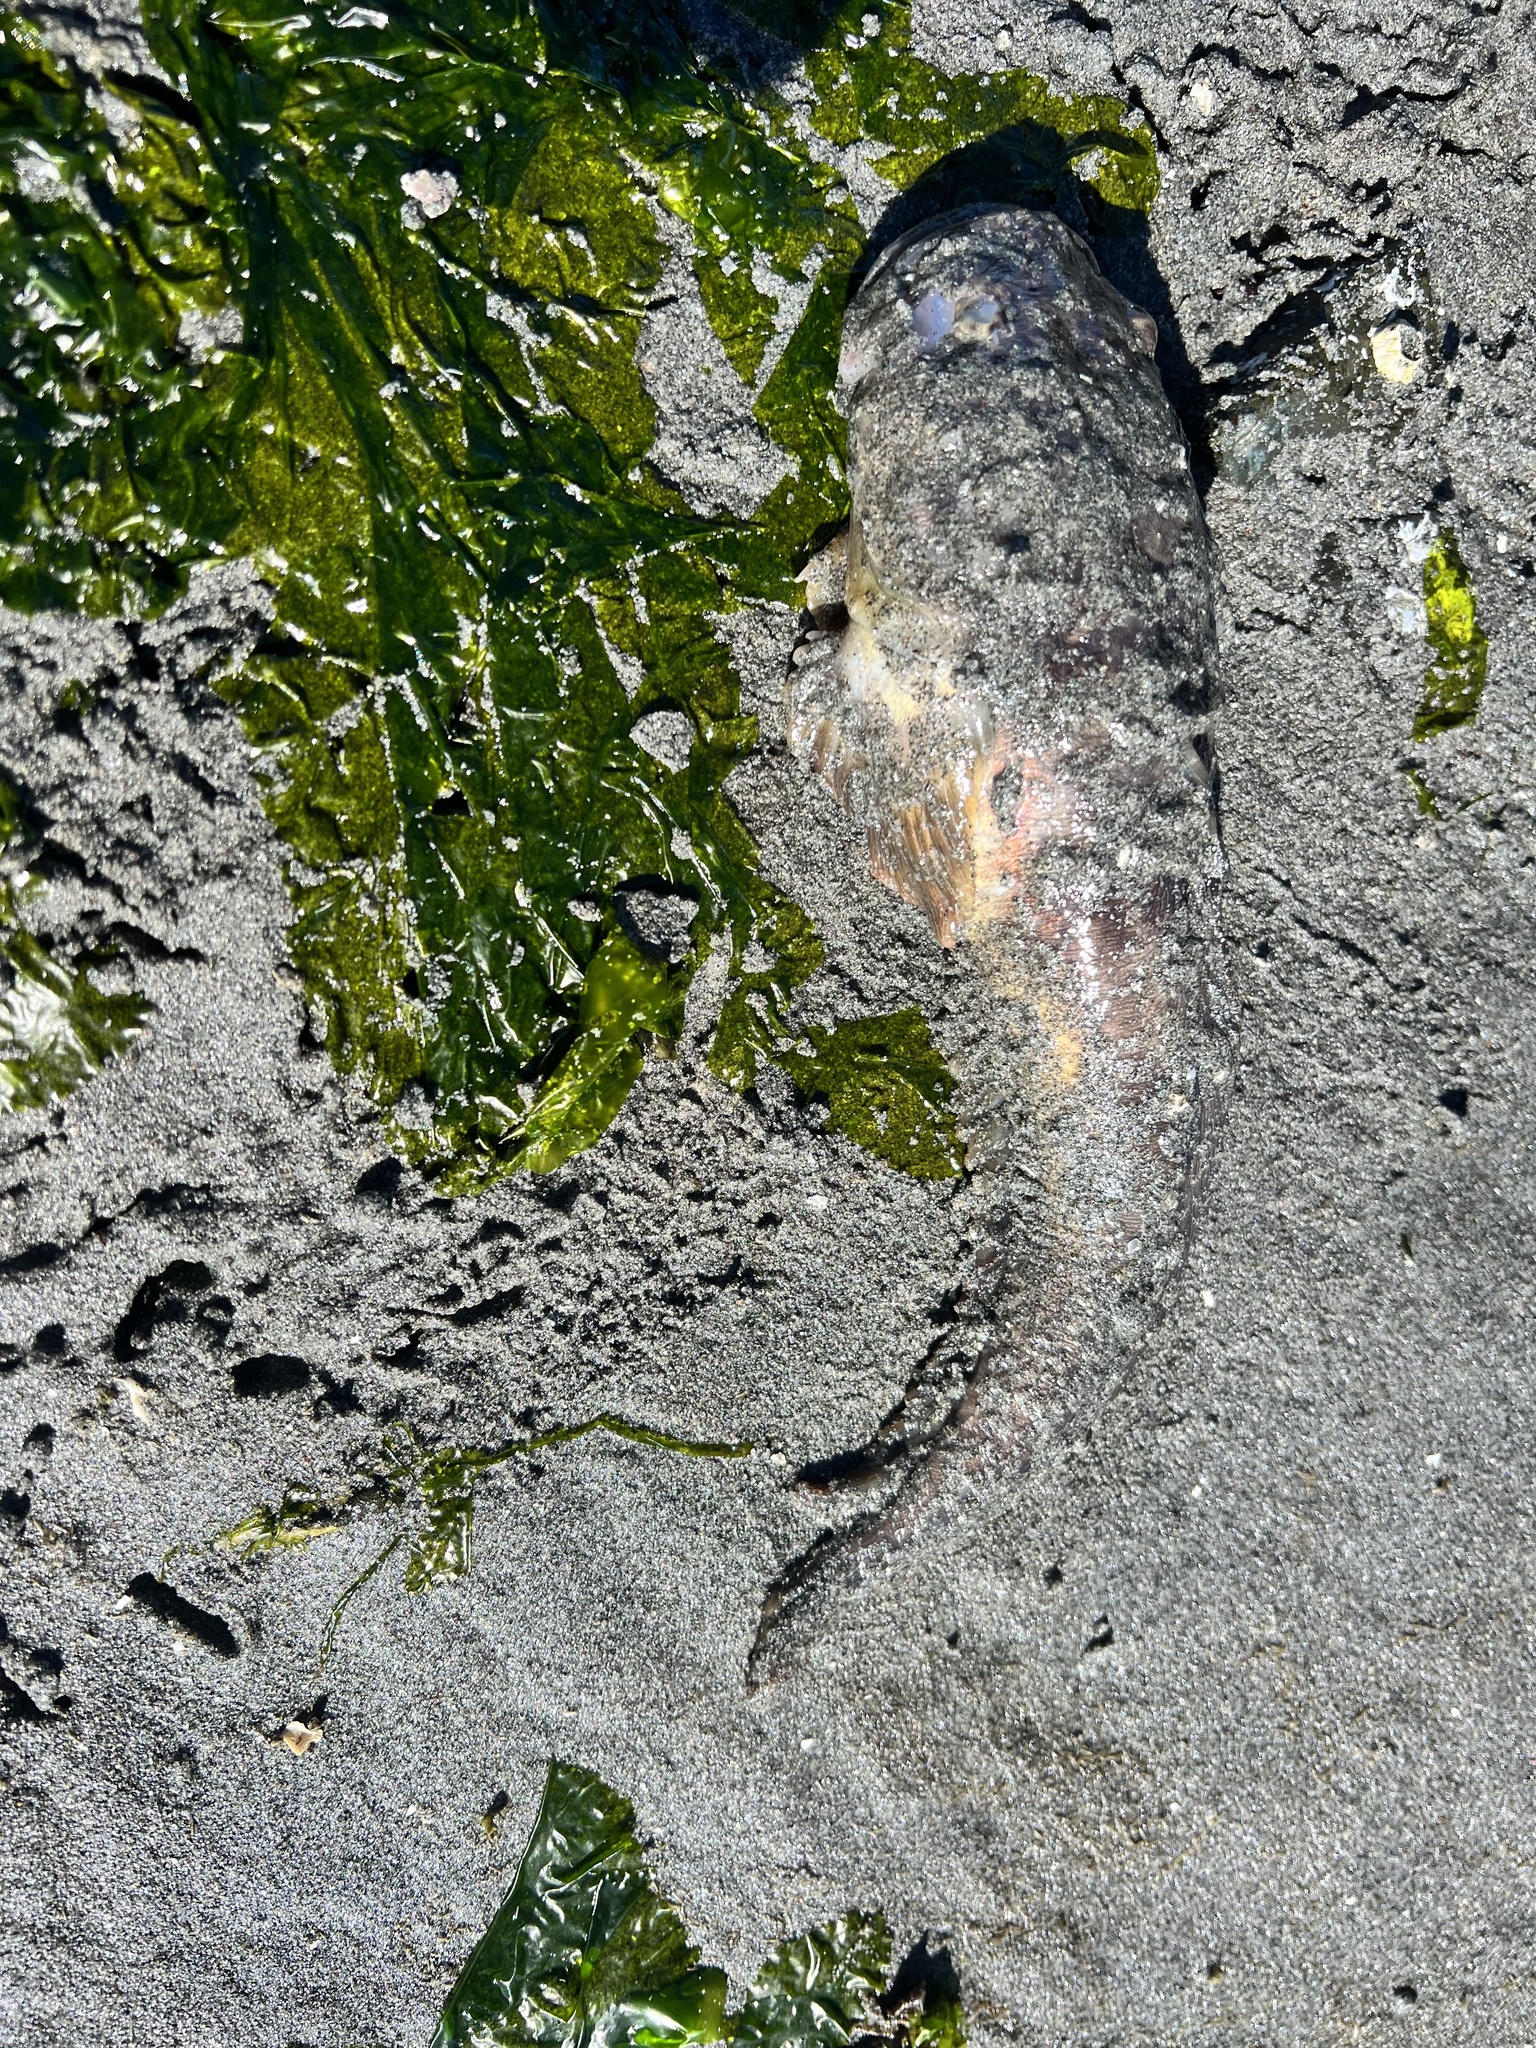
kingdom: Animalia
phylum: Chordata
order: Batrachoidiformes
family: Batrachoididae
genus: Porichthys
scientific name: Porichthys notatus
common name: Plainfin midshipman
